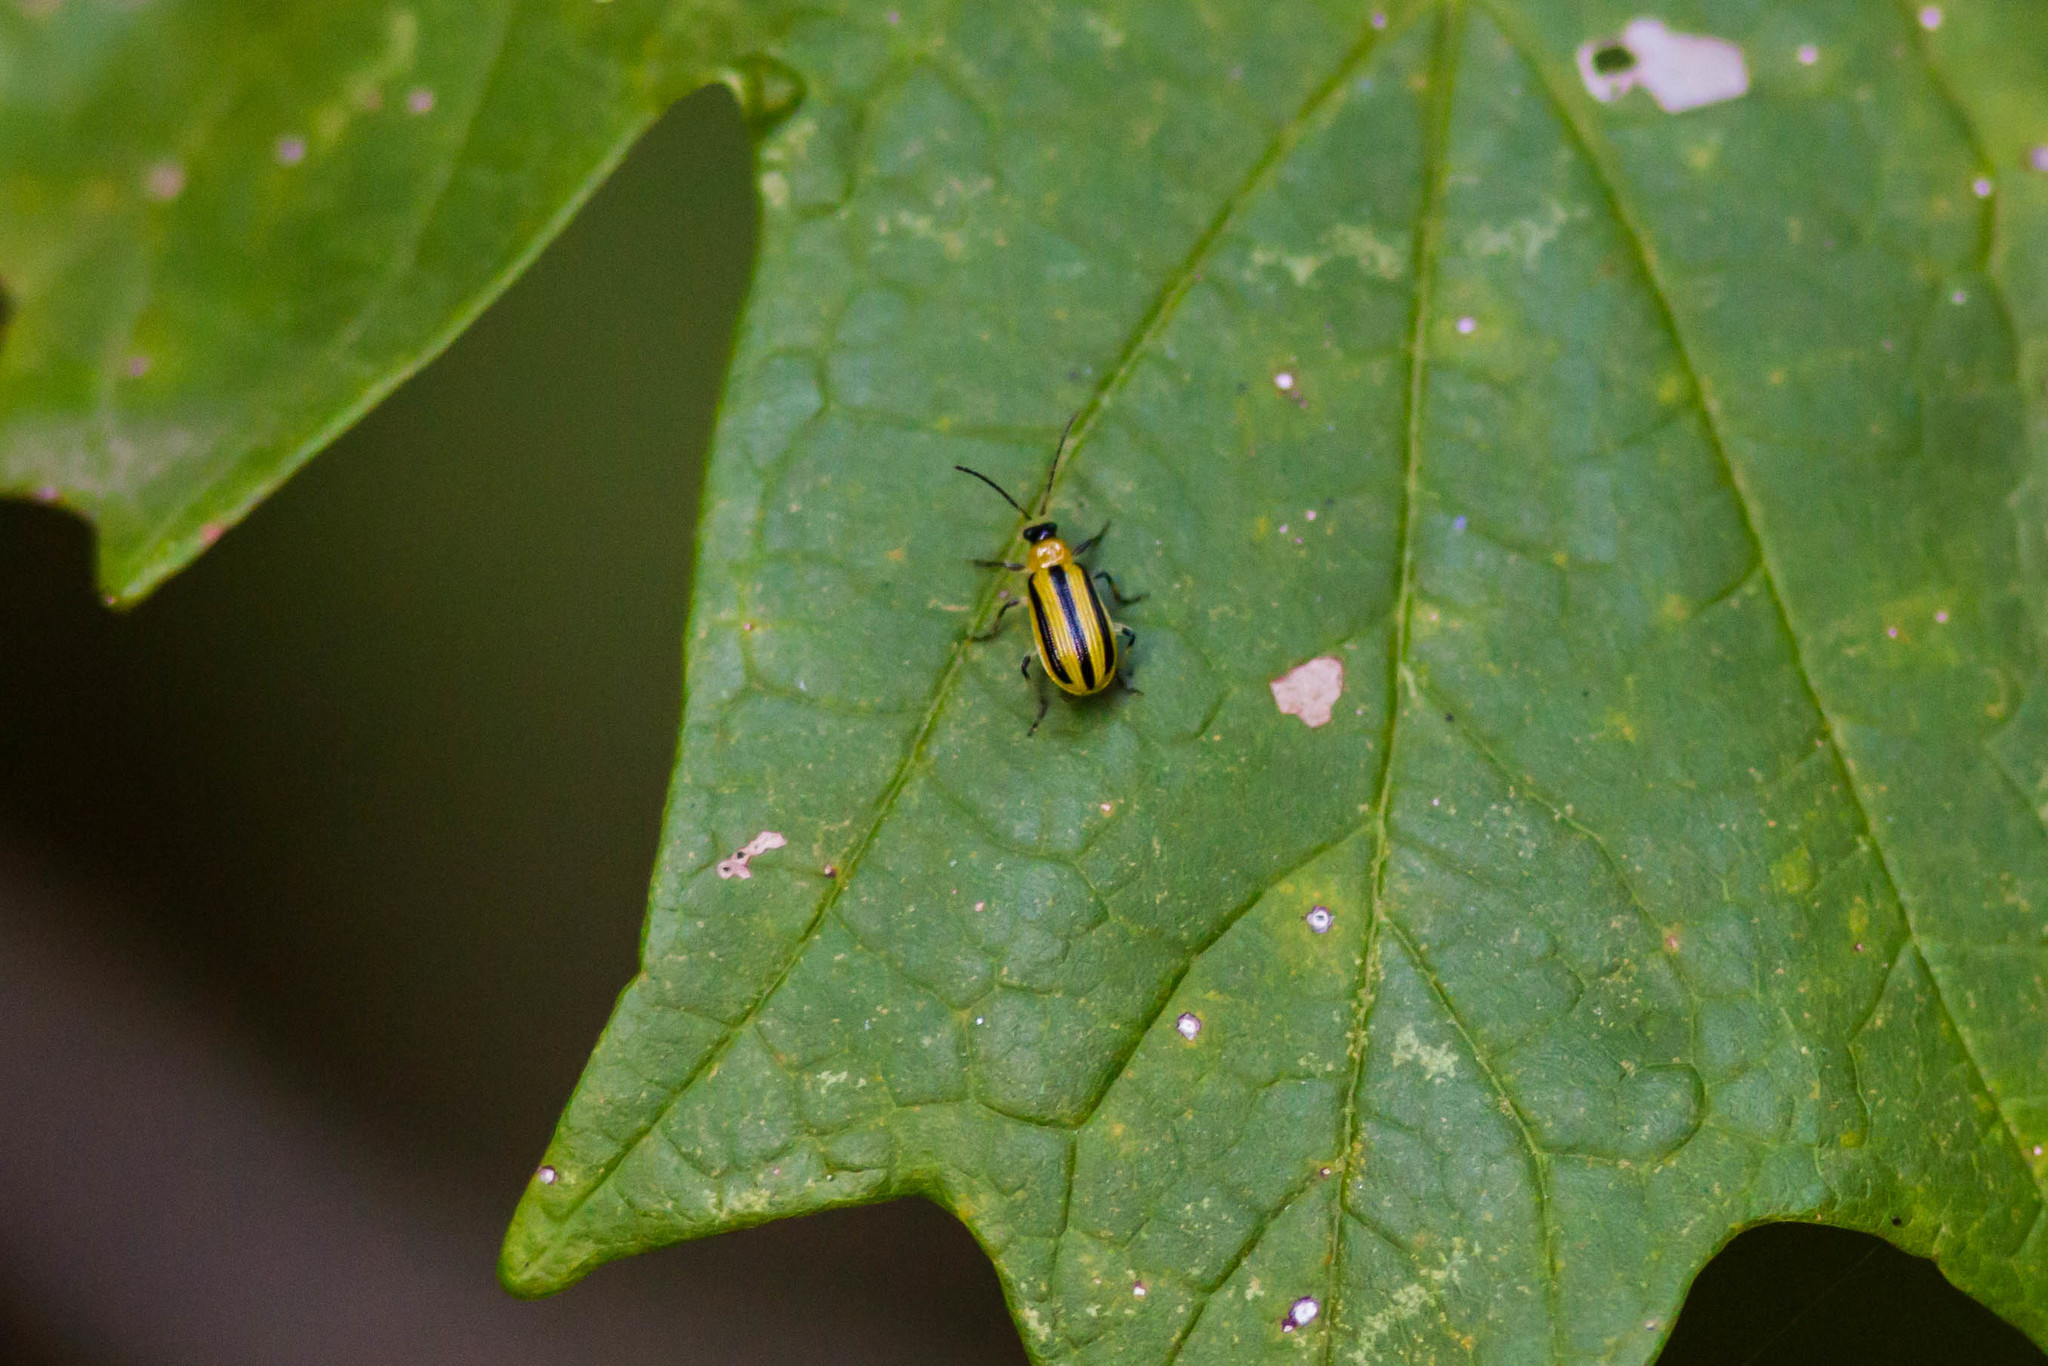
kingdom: Animalia
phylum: Arthropoda
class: Insecta
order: Coleoptera
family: Chrysomelidae
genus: Acalymma
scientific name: Acalymma vittatum
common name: Striped cucumber beetle
